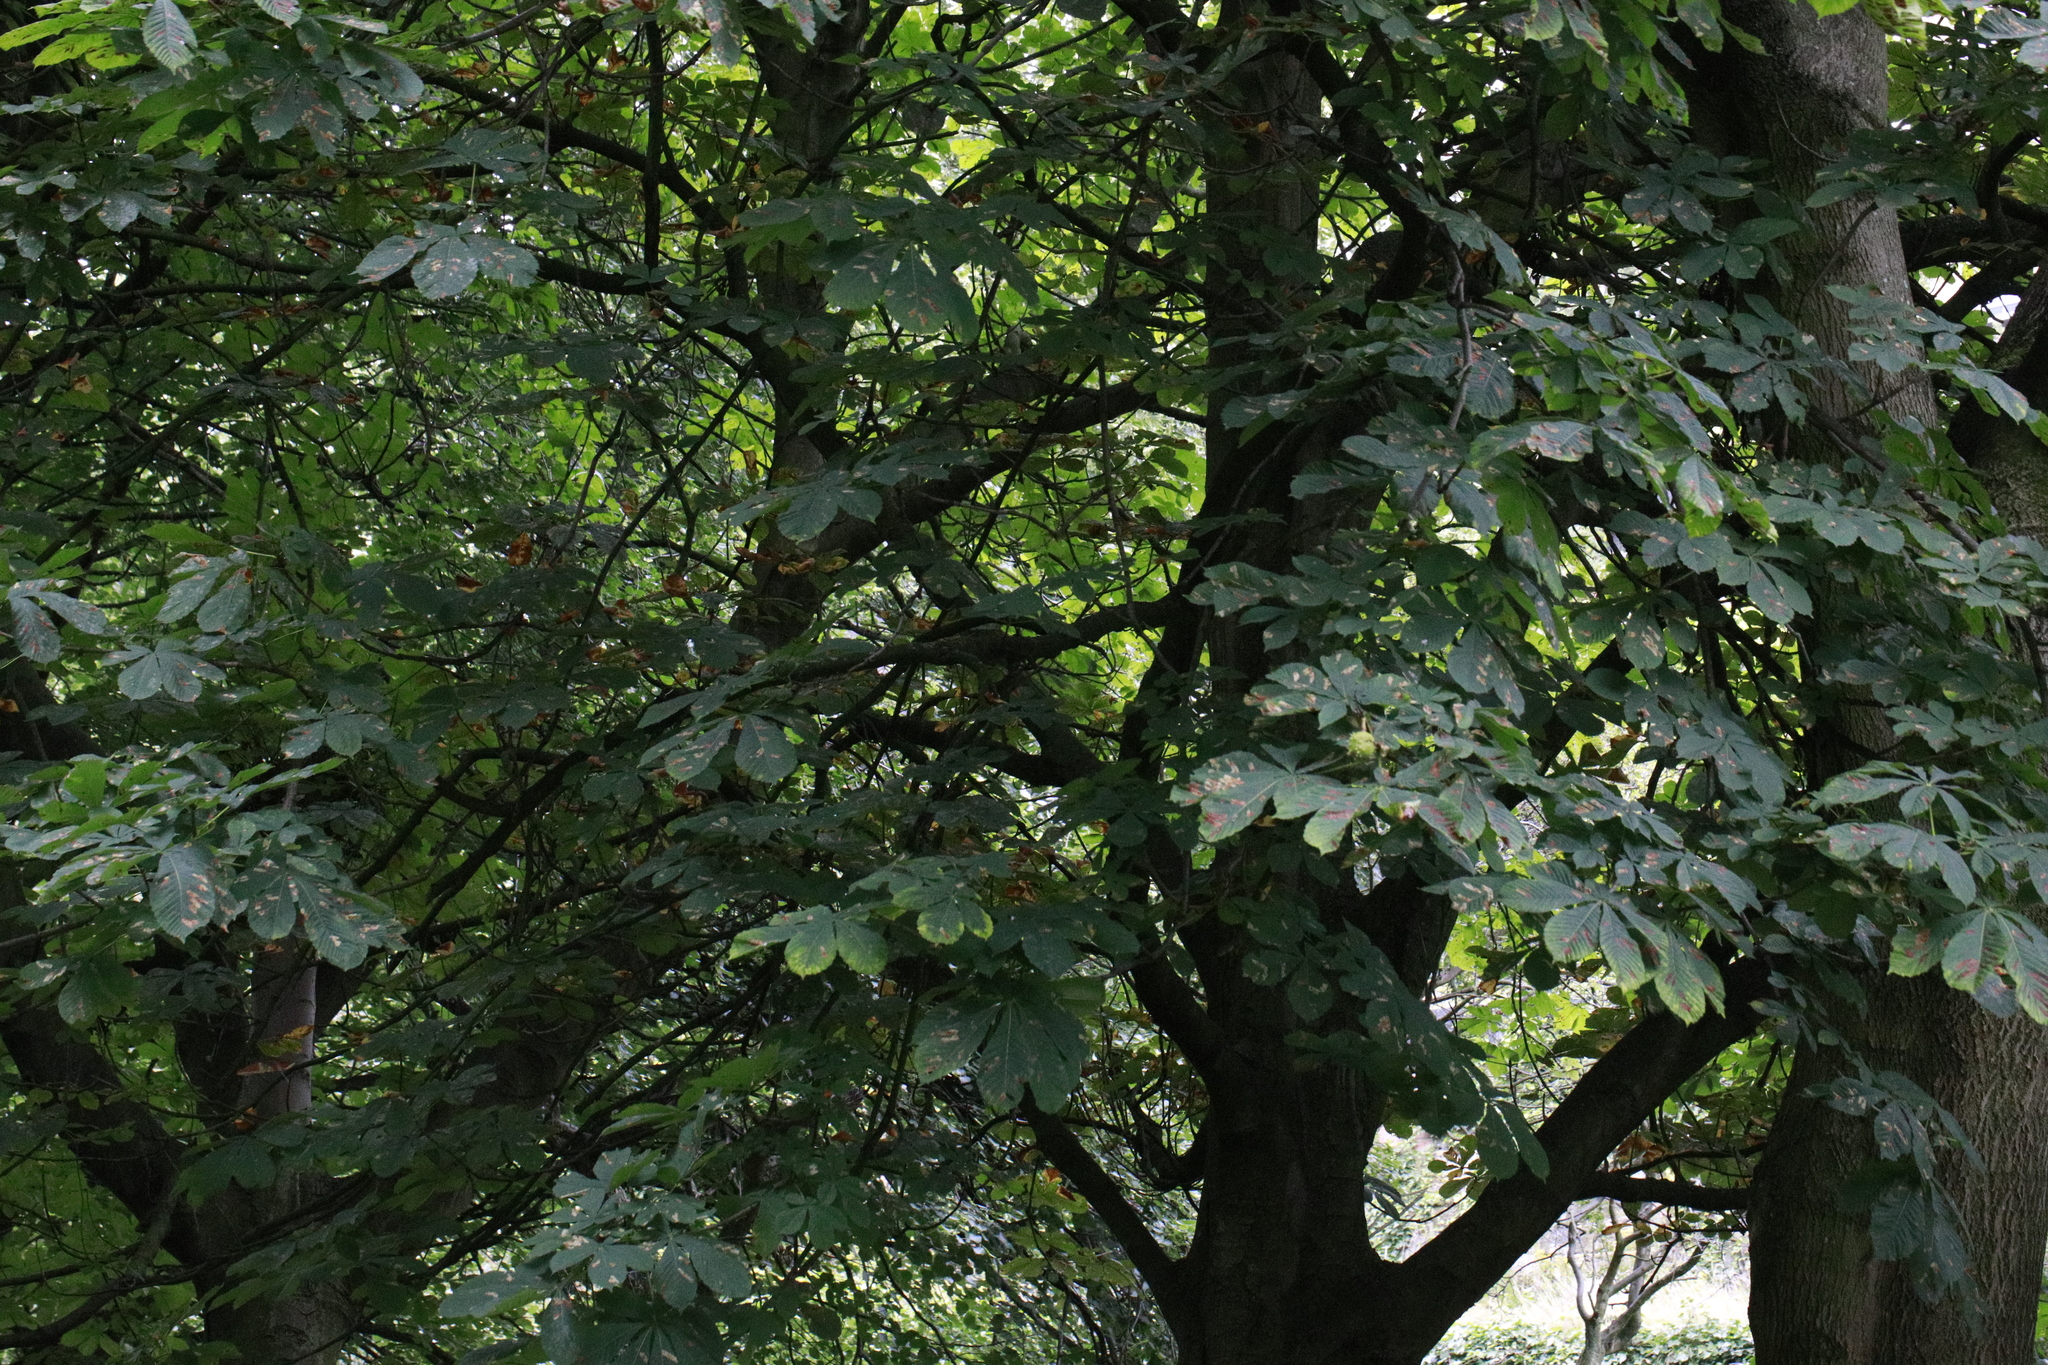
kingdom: Plantae
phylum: Tracheophyta
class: Magnoliopsida
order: Sapindales
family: Sapindaceae
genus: Aesculus
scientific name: Aesculus hippocastanum
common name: Horse-chestnut
